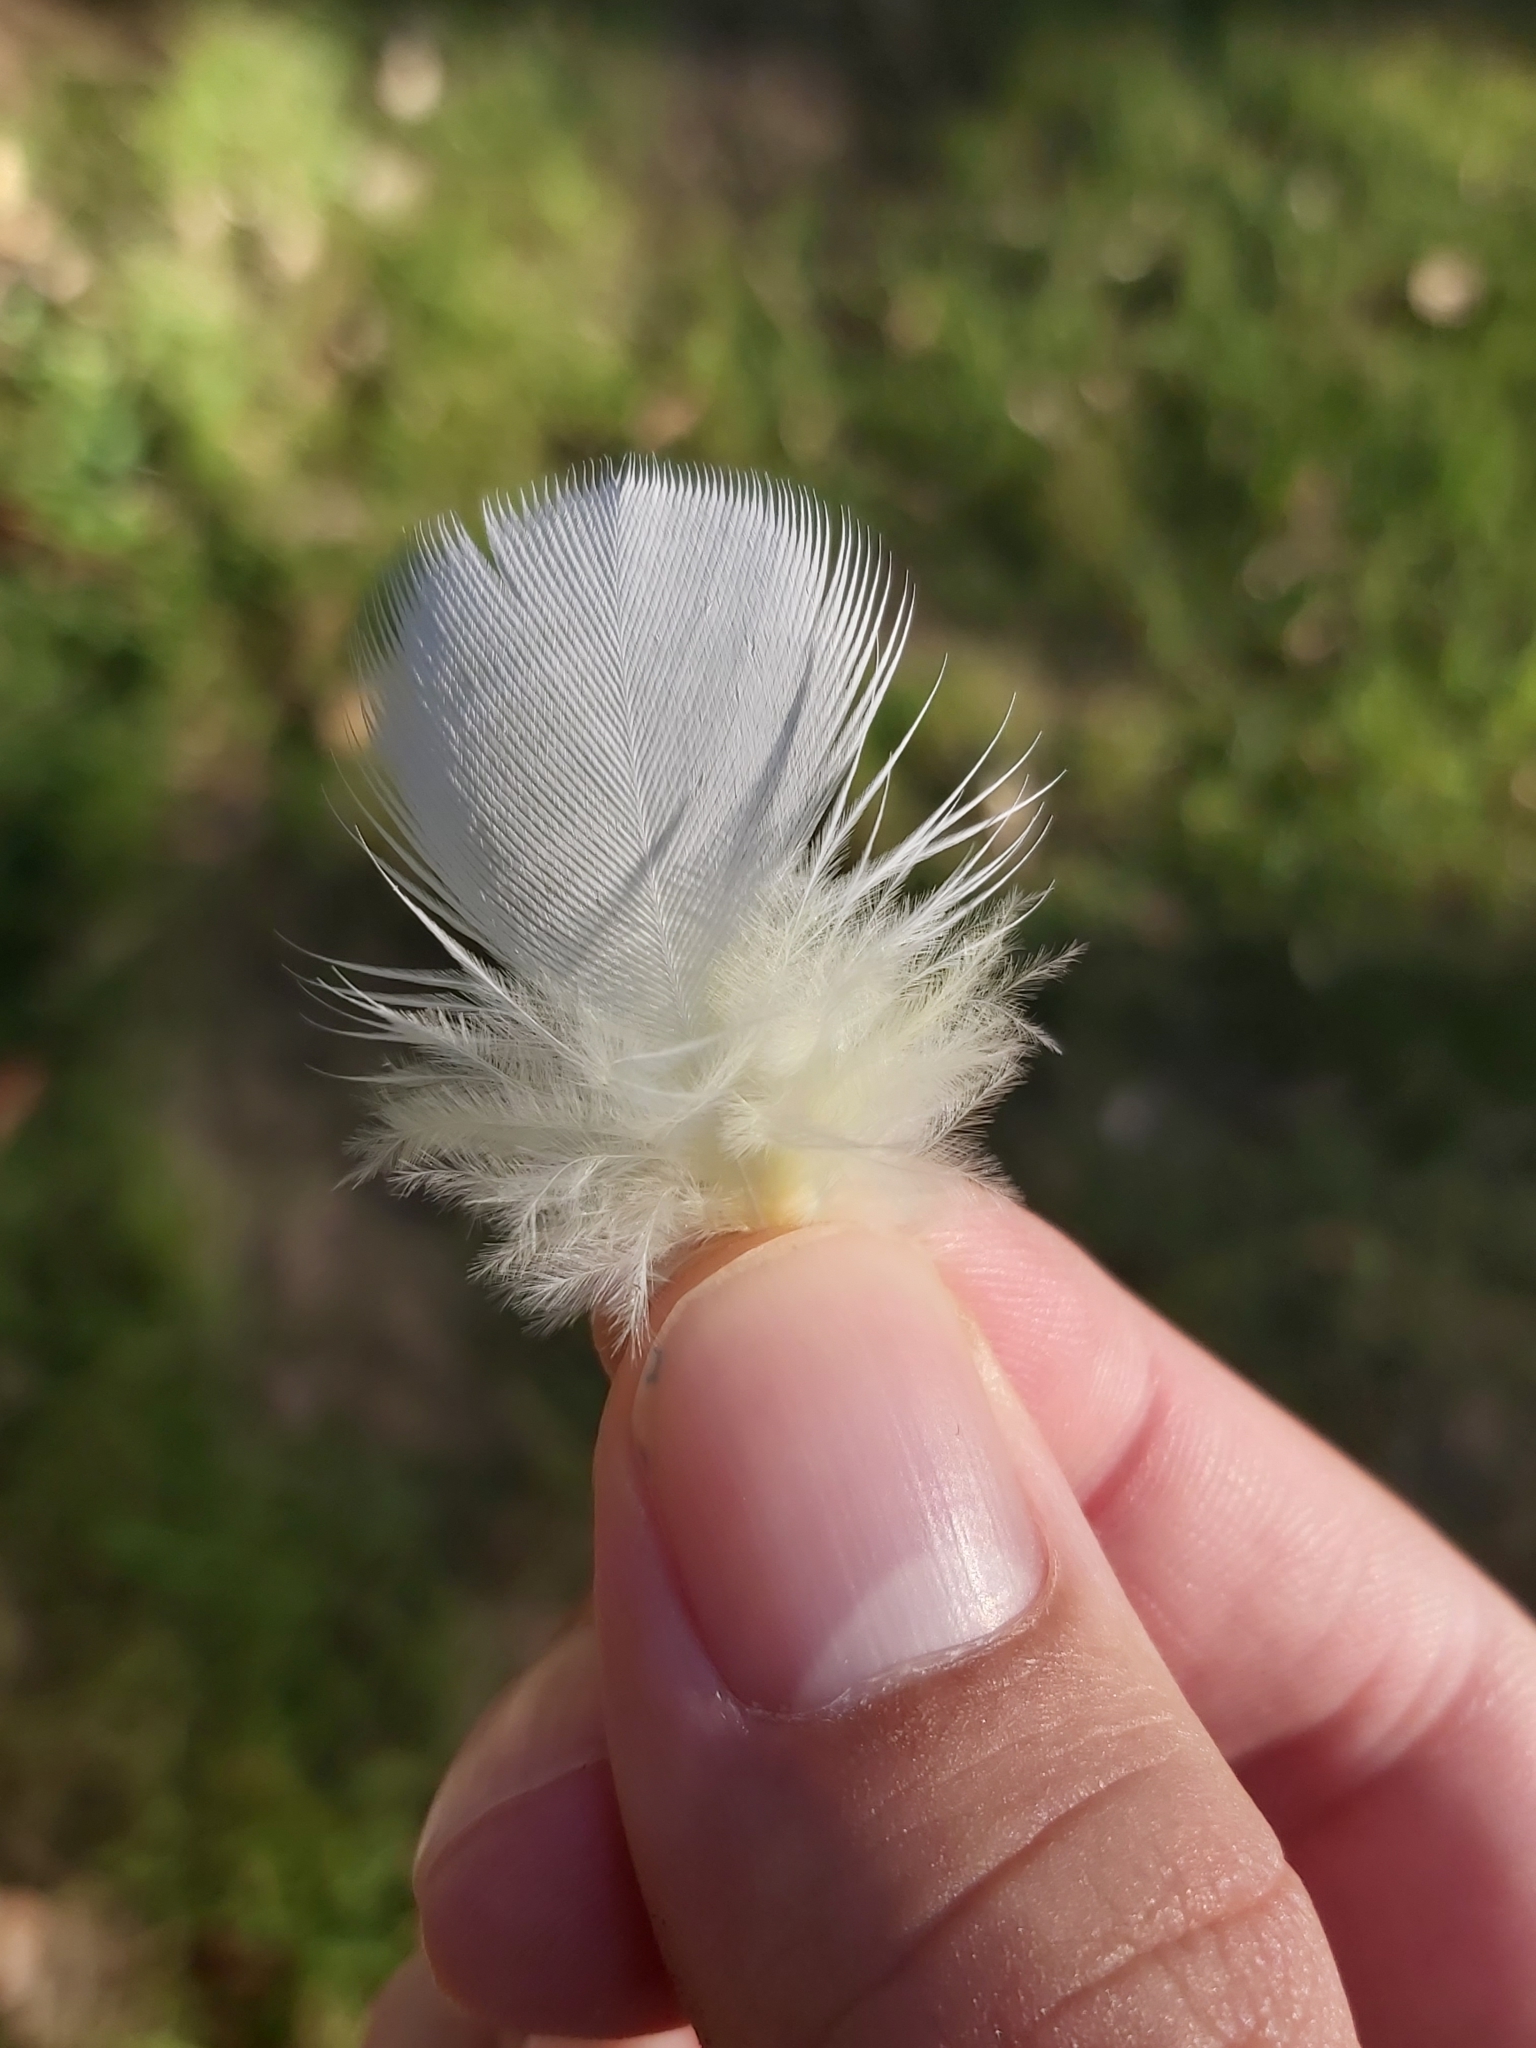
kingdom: Animalia
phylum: Chordata
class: Aves
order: Psittaciformes
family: Psittacidae
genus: Cacatua
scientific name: Cacatua galerita
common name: Sulphur-crested cockatoo
